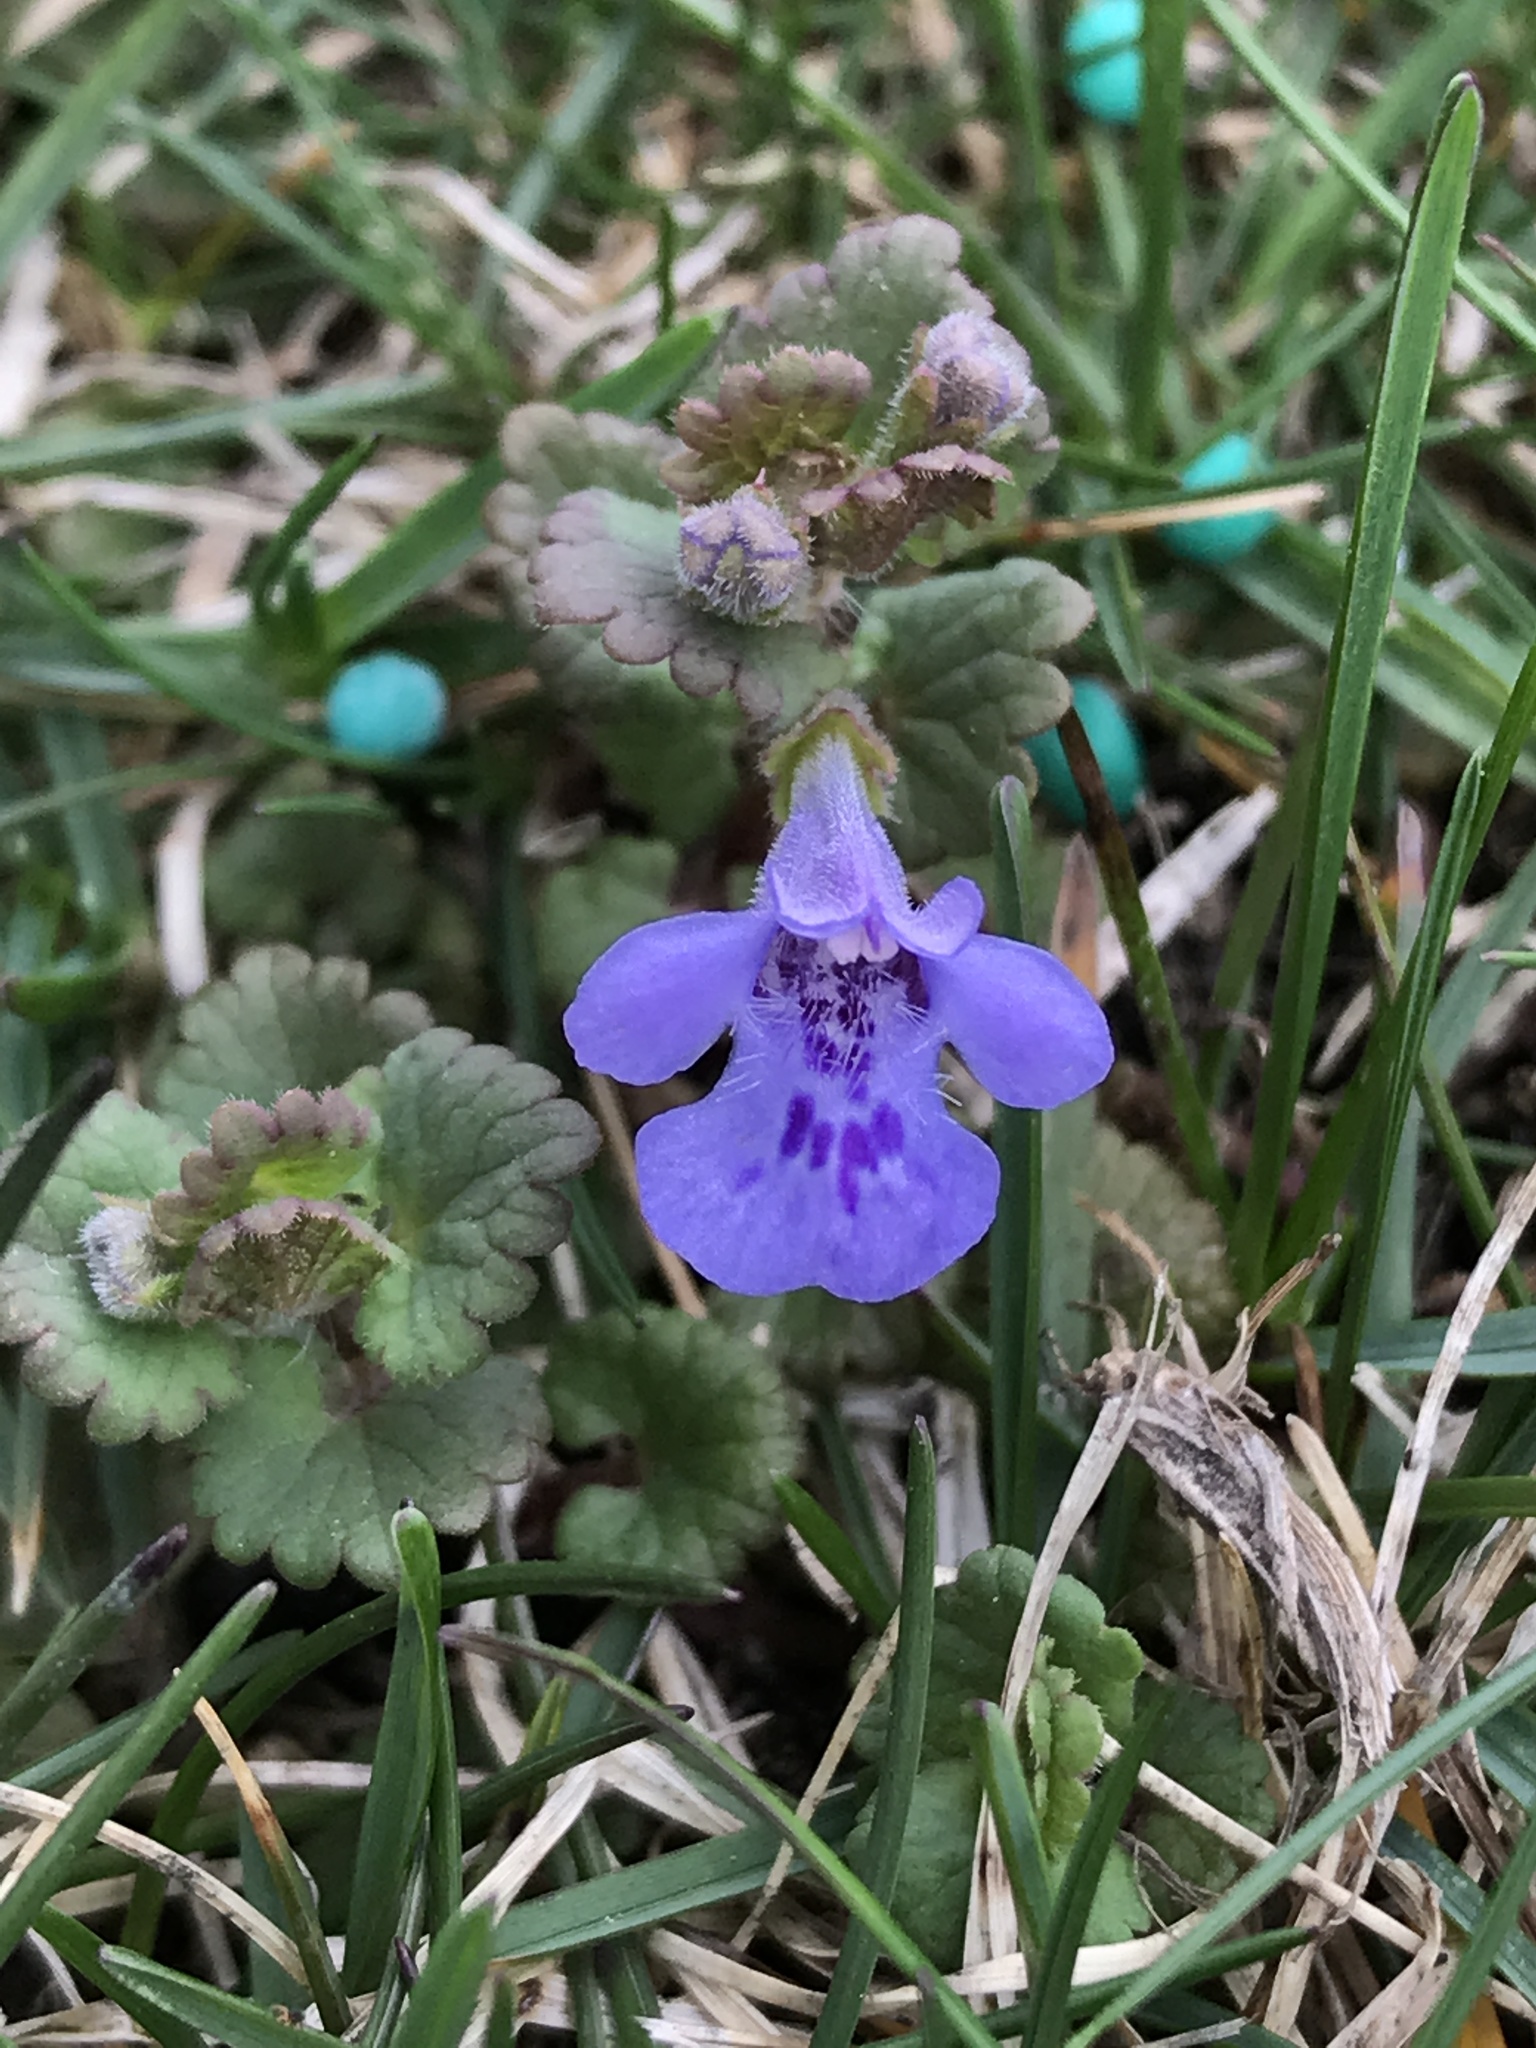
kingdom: Plantae
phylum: Tracheophyta
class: Magnoliopsida
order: Lamiales
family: Lamiaceae
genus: Glechoma
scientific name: Glechoma hederacea
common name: Ground ivy
